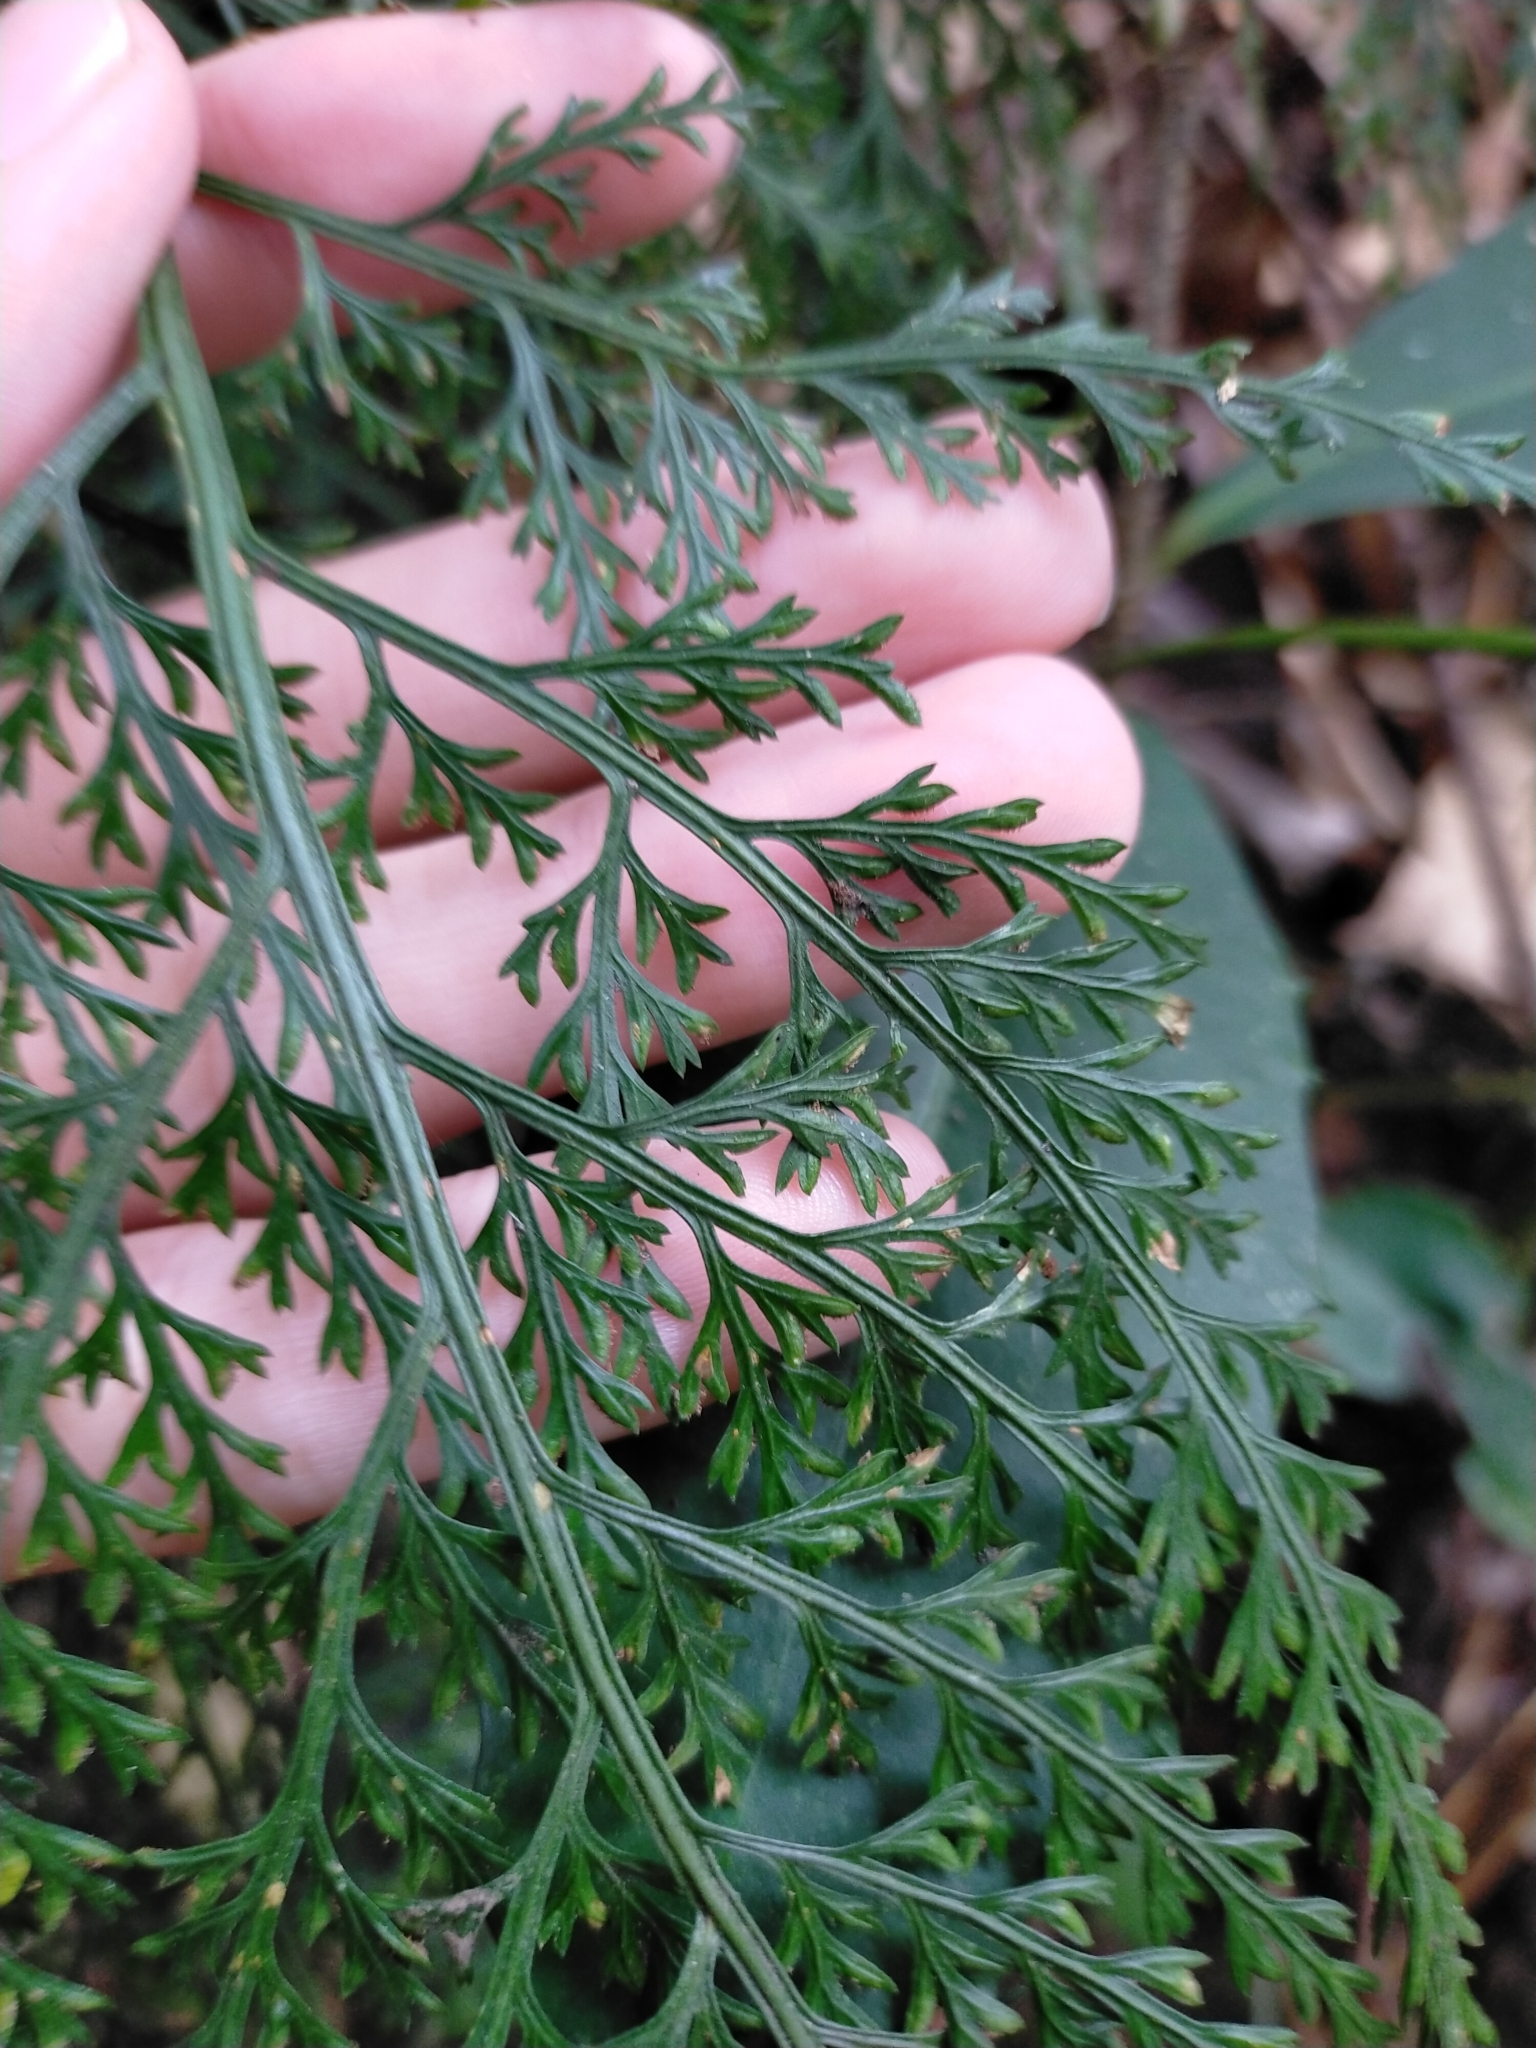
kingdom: Plantae
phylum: Tracheophyta
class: Polypodiopsida
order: Polypodiales
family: Aspleniaceae
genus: Asplenium
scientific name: Asplenium ritoense
